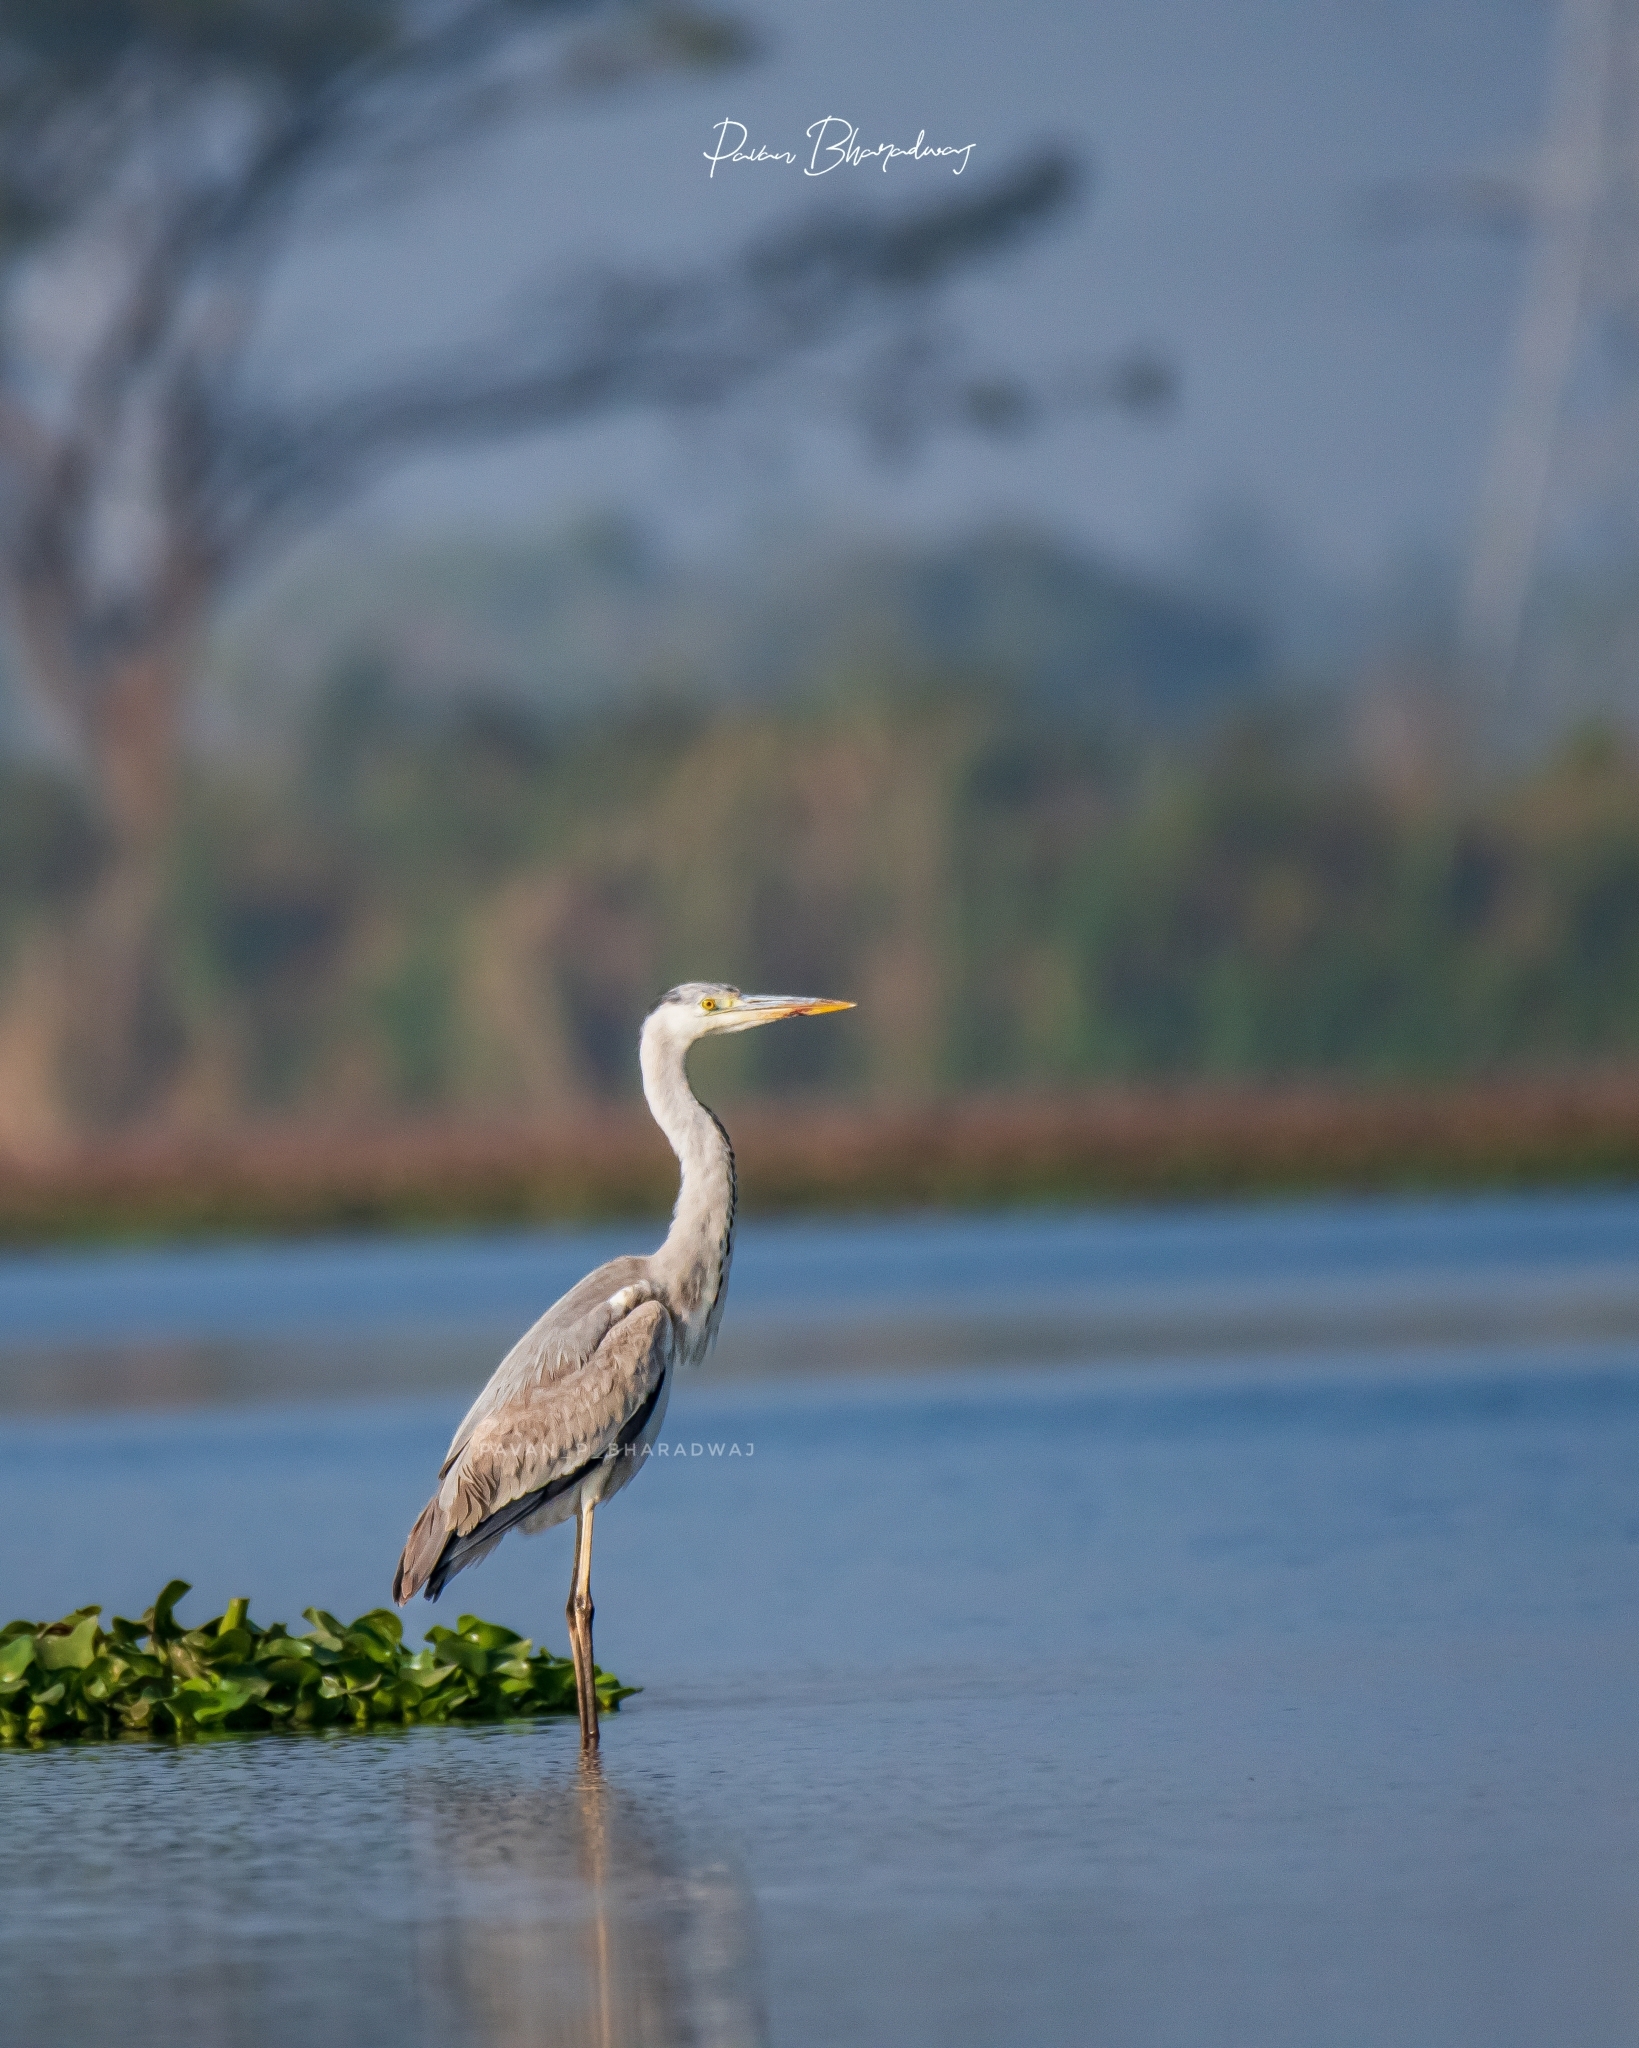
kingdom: Animalia
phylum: Chordata
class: Aves
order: Pelecaniformes
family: Ardeidae
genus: Ardea
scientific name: Ardea cinerea
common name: Grey heron
